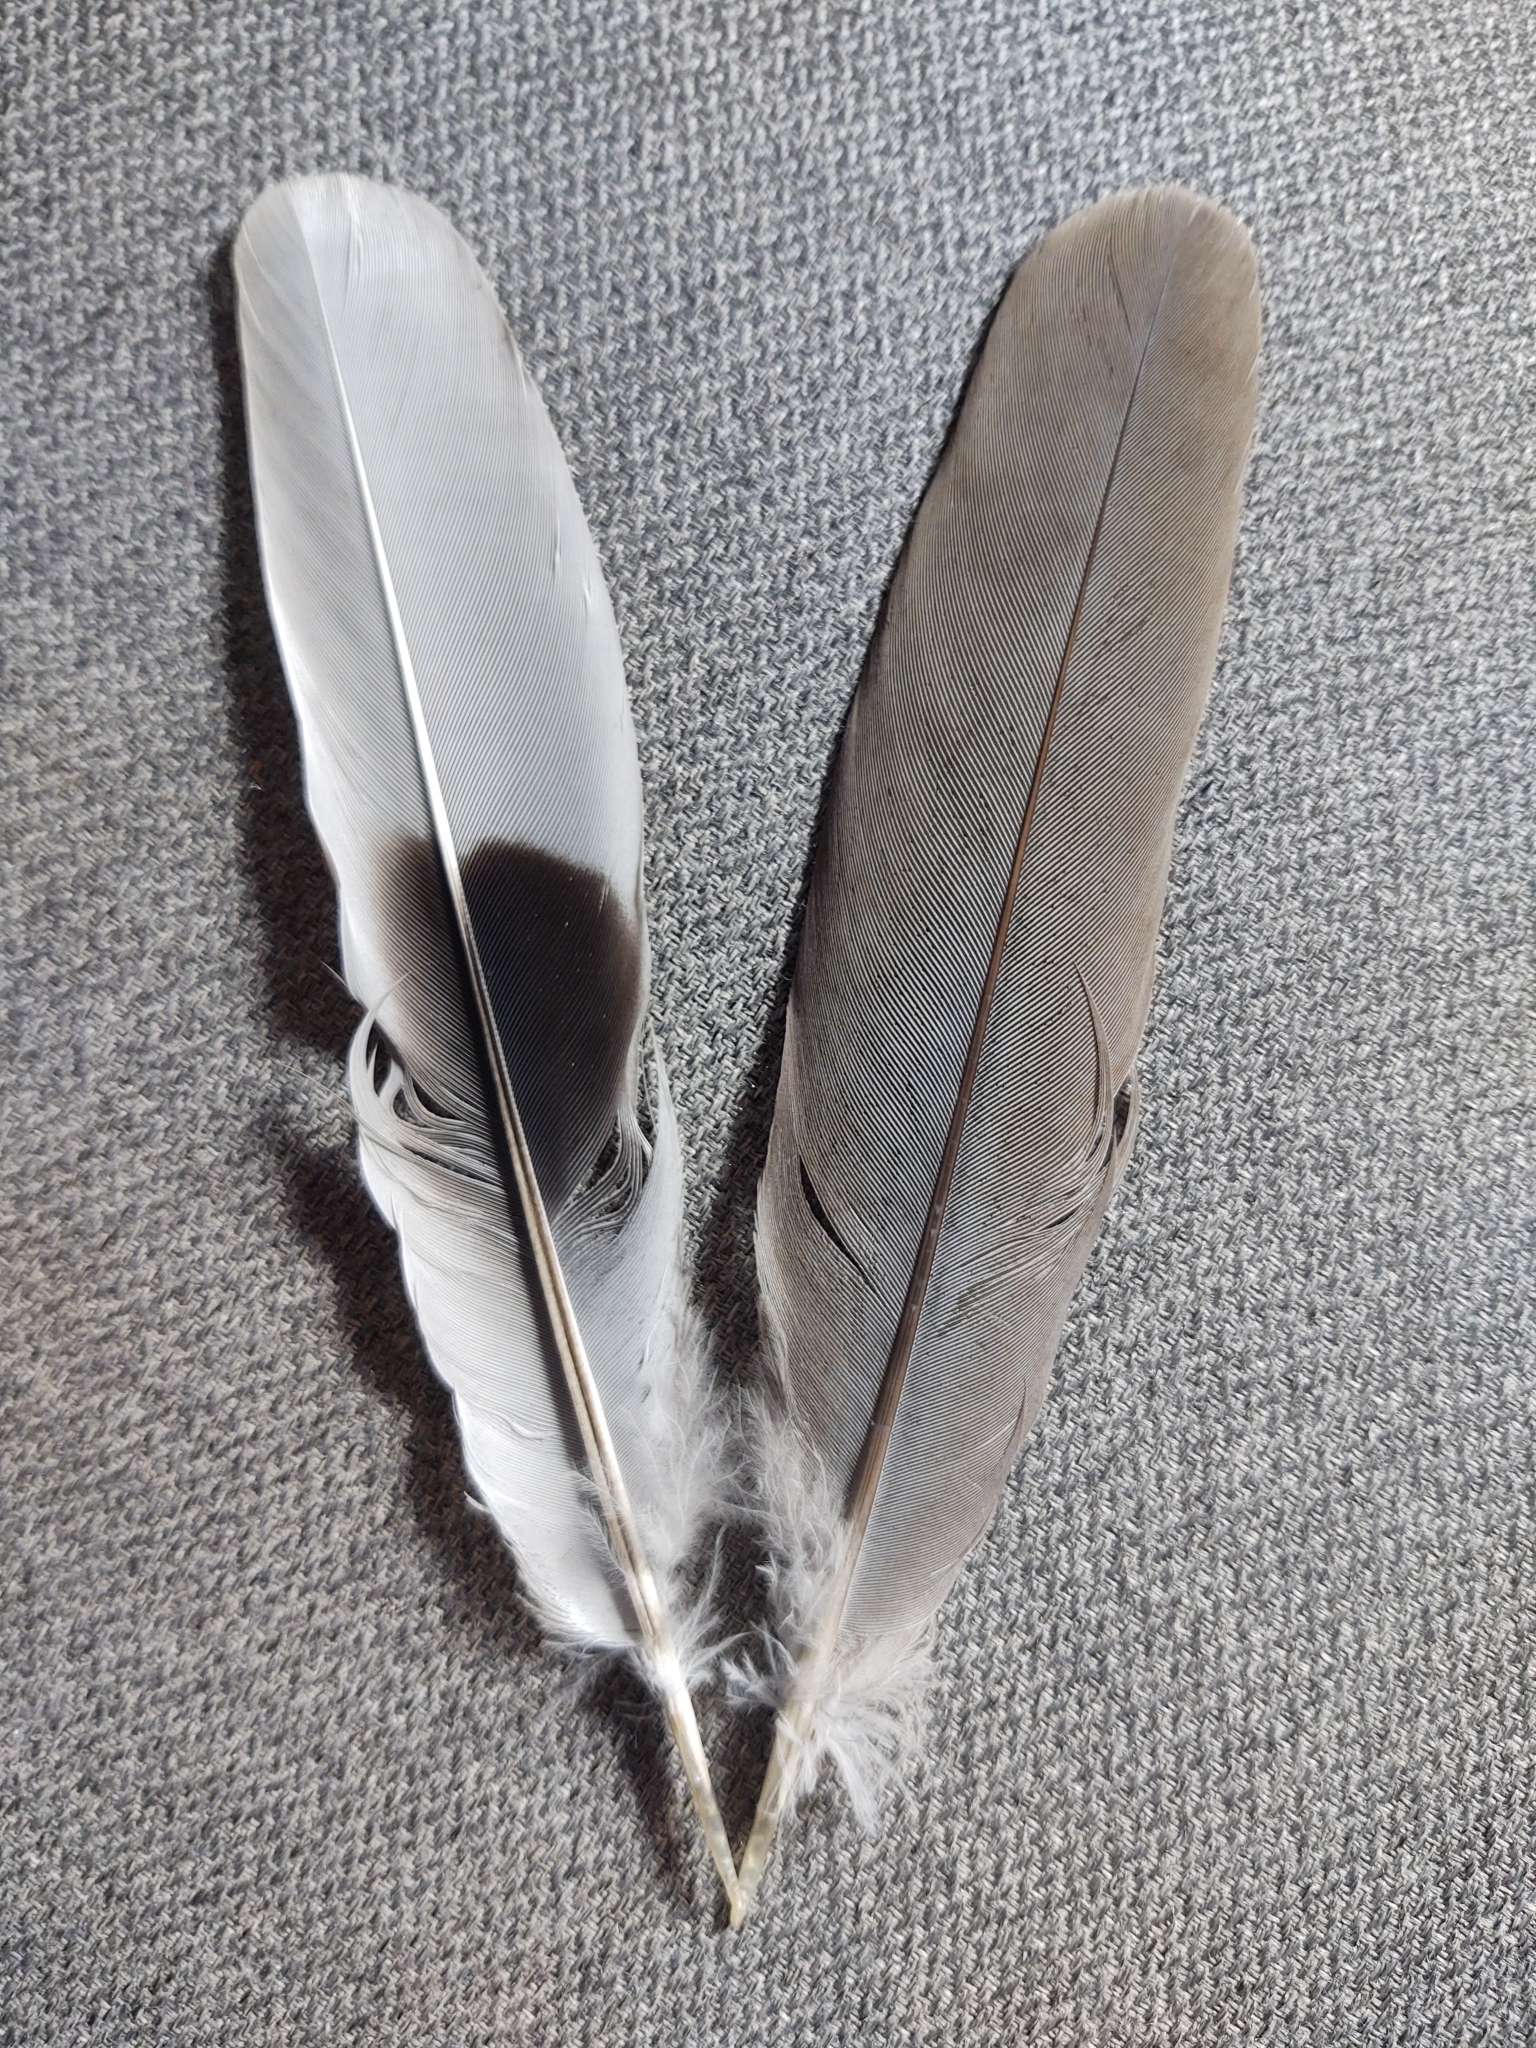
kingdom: Animalia
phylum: Chordata
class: Aves
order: Columbiformes
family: Columbidae
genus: Streptopelia
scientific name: Streptopelia decaocto
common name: Eurasian collared dove
